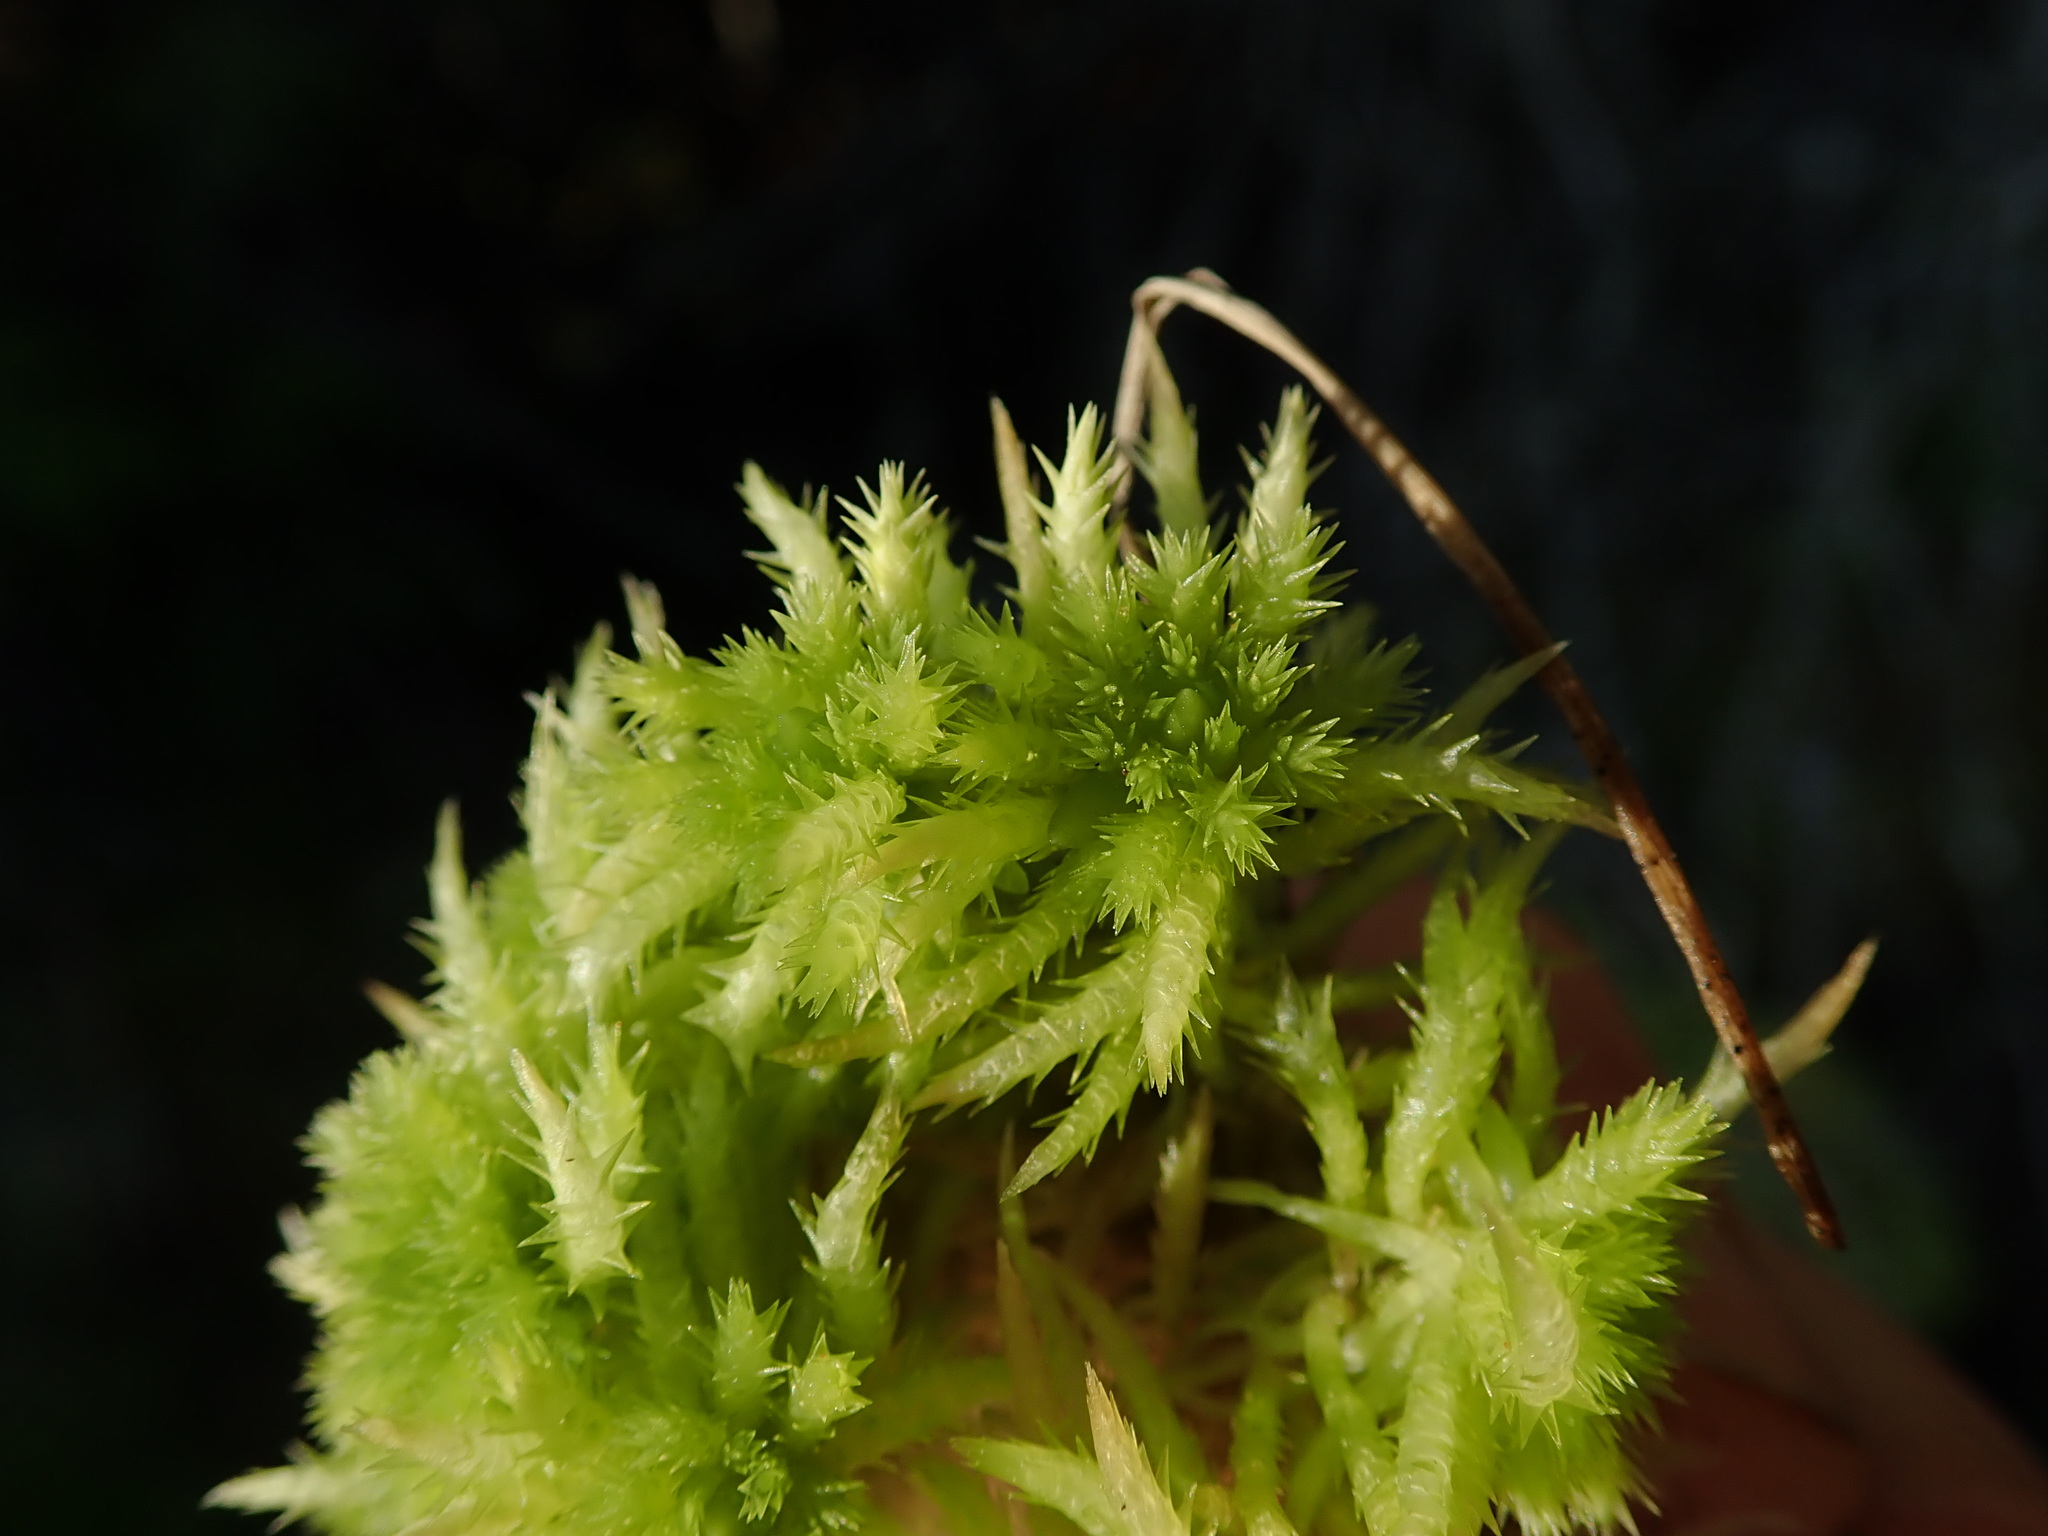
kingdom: Plantae
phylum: Bryophyta
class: Sphagnopsida
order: Sphagnales
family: Sphagnaceae
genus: Sphagnum
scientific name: Sphagnum squarrosum
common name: Shaggy peat moss
